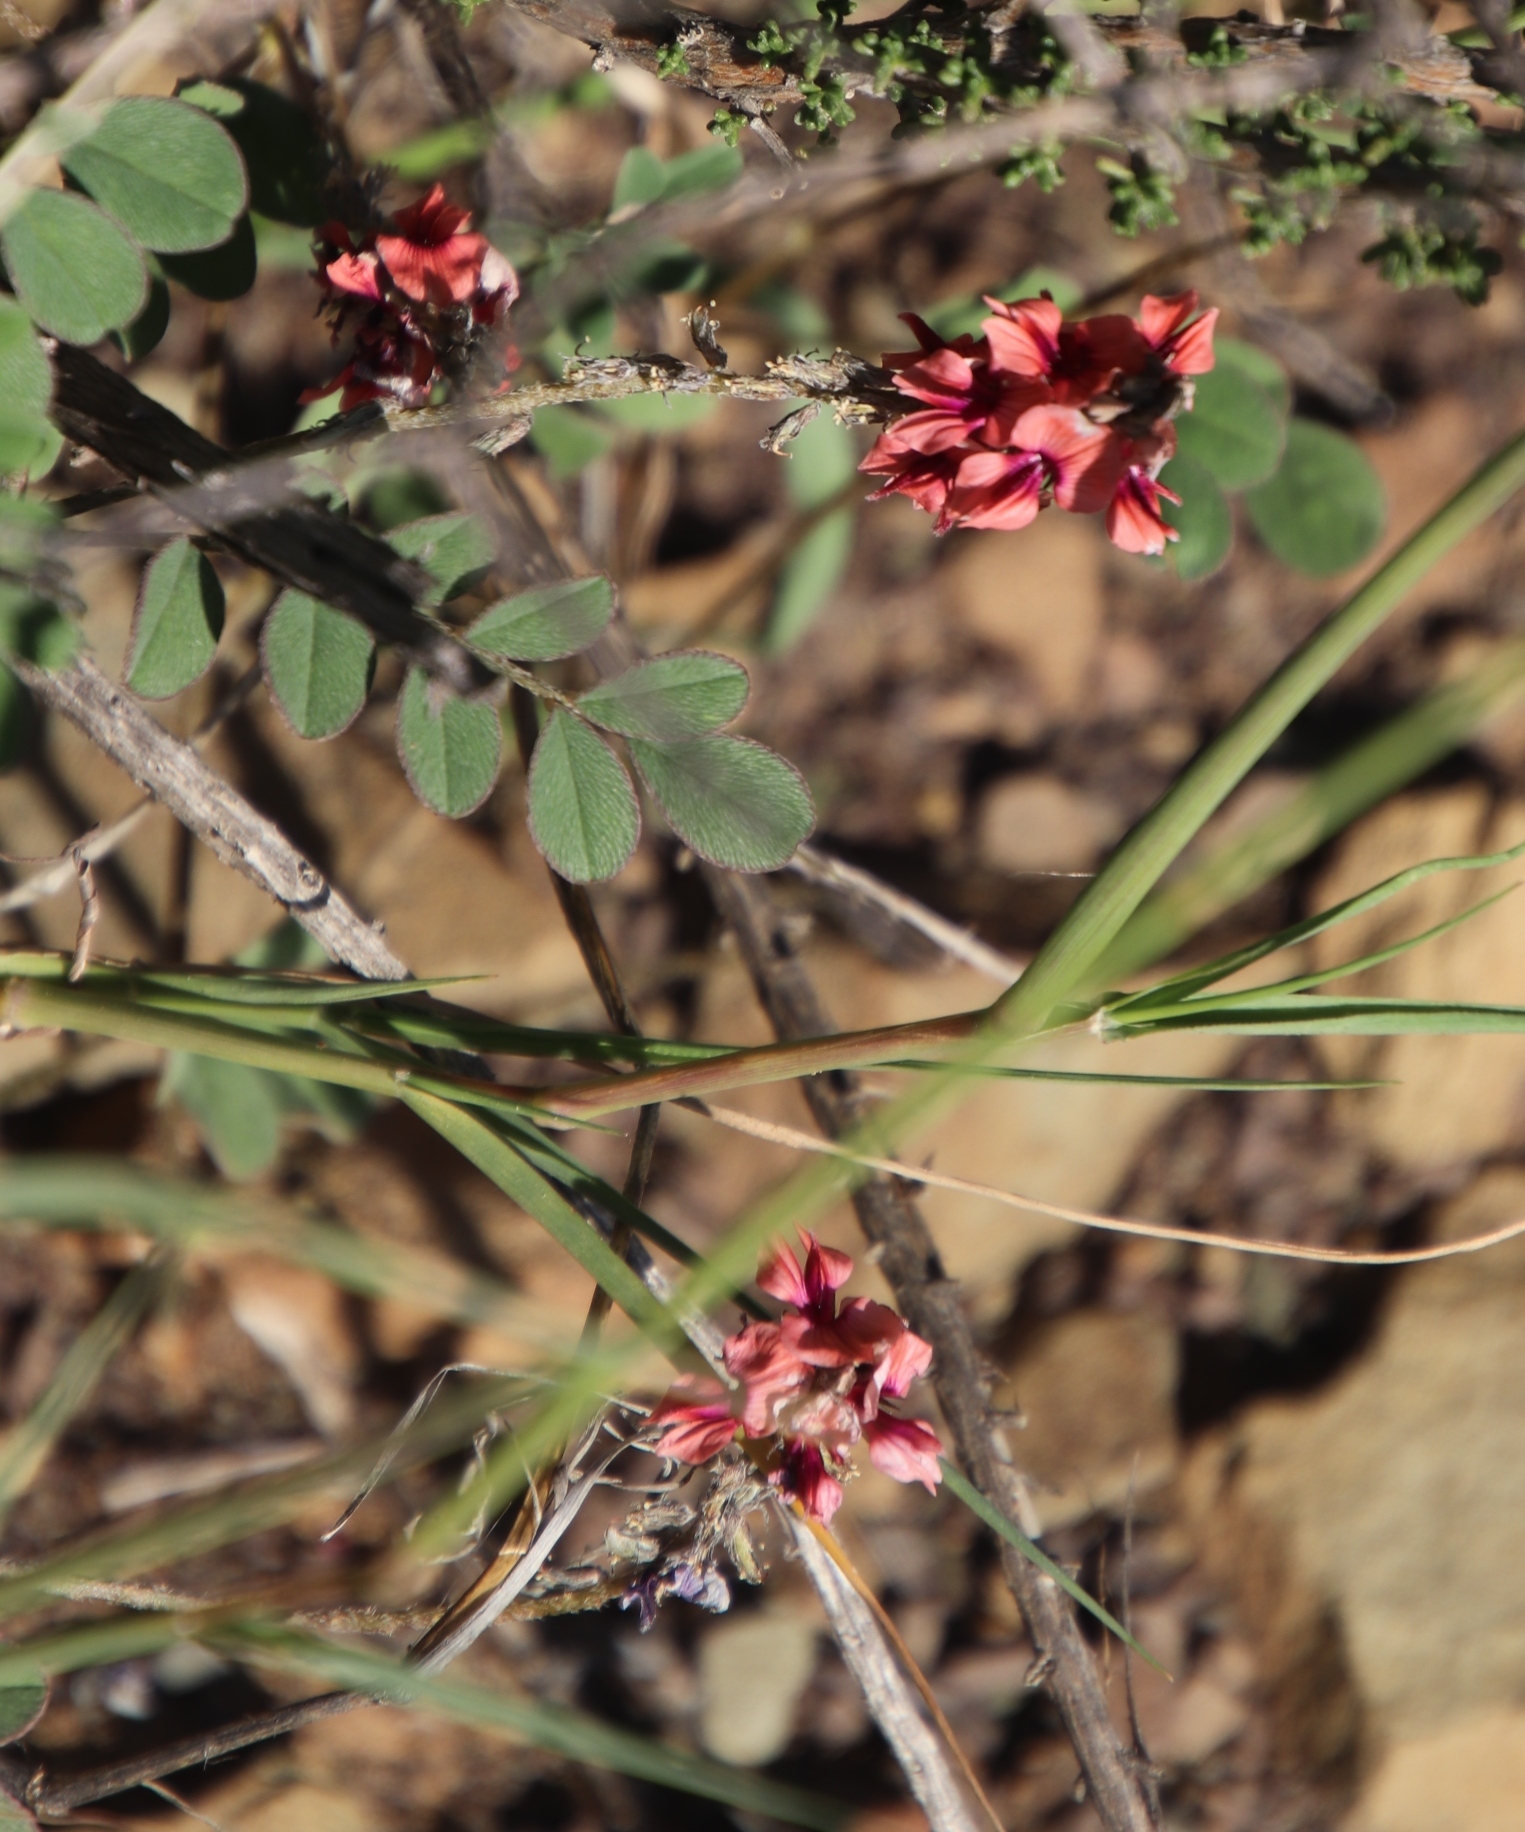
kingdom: Plantae
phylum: Tracheophyta
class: Magnoliopsida
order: Fabales
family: Fabaceae
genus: Indigofera
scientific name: Indigofera alternans
